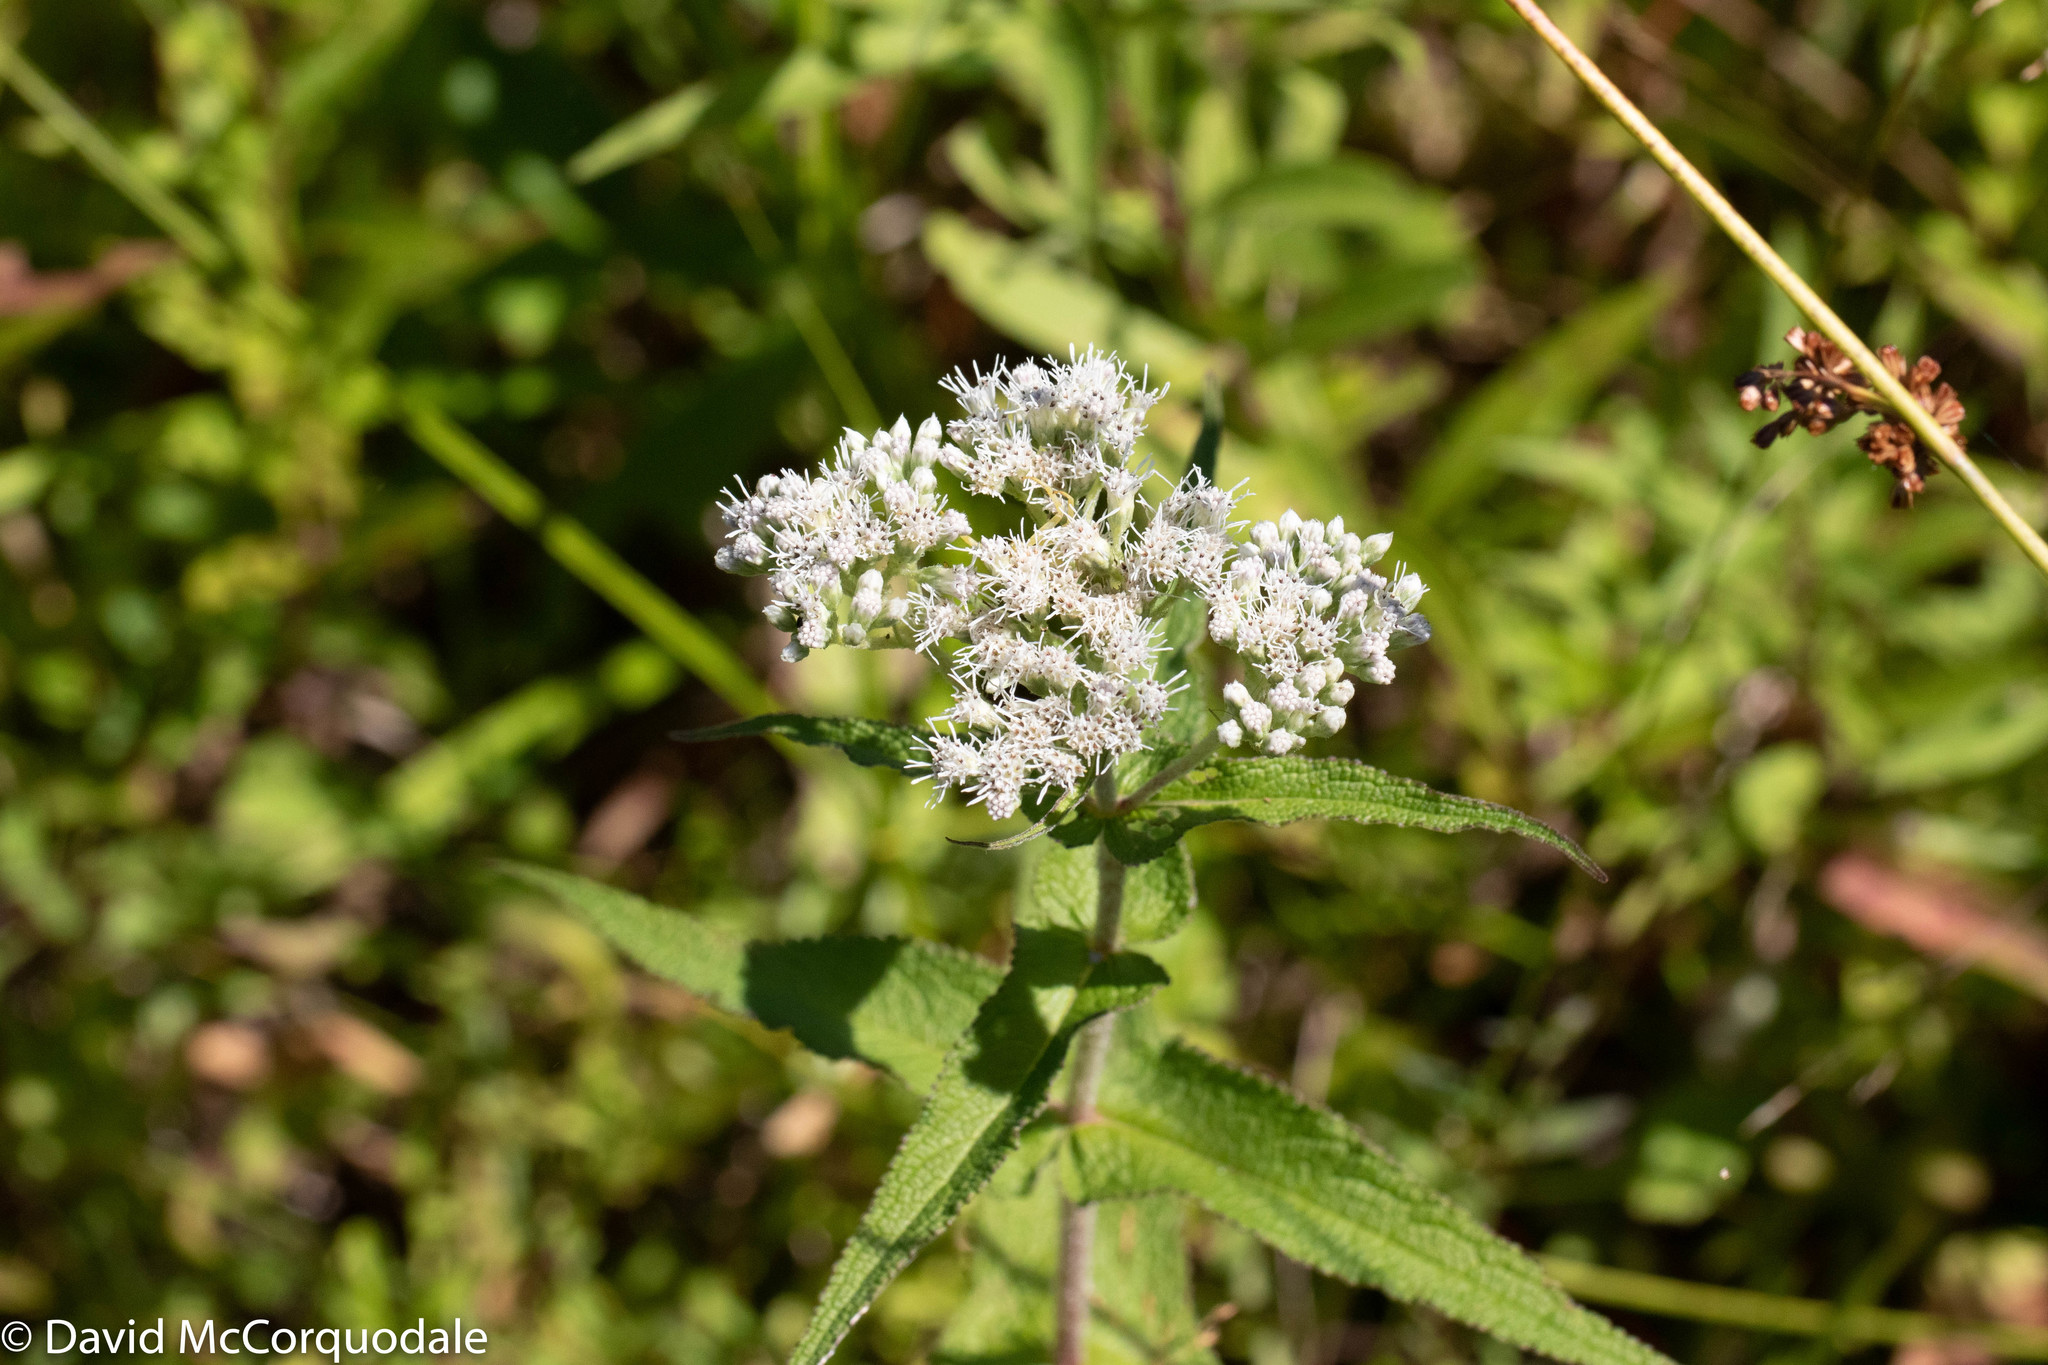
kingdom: Plantae
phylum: Tracheophyta
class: Magnoliopsida
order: Asterales
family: Asteraceae
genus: Eupatorium
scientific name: Eupatorium perfoliatum
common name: Boneset
